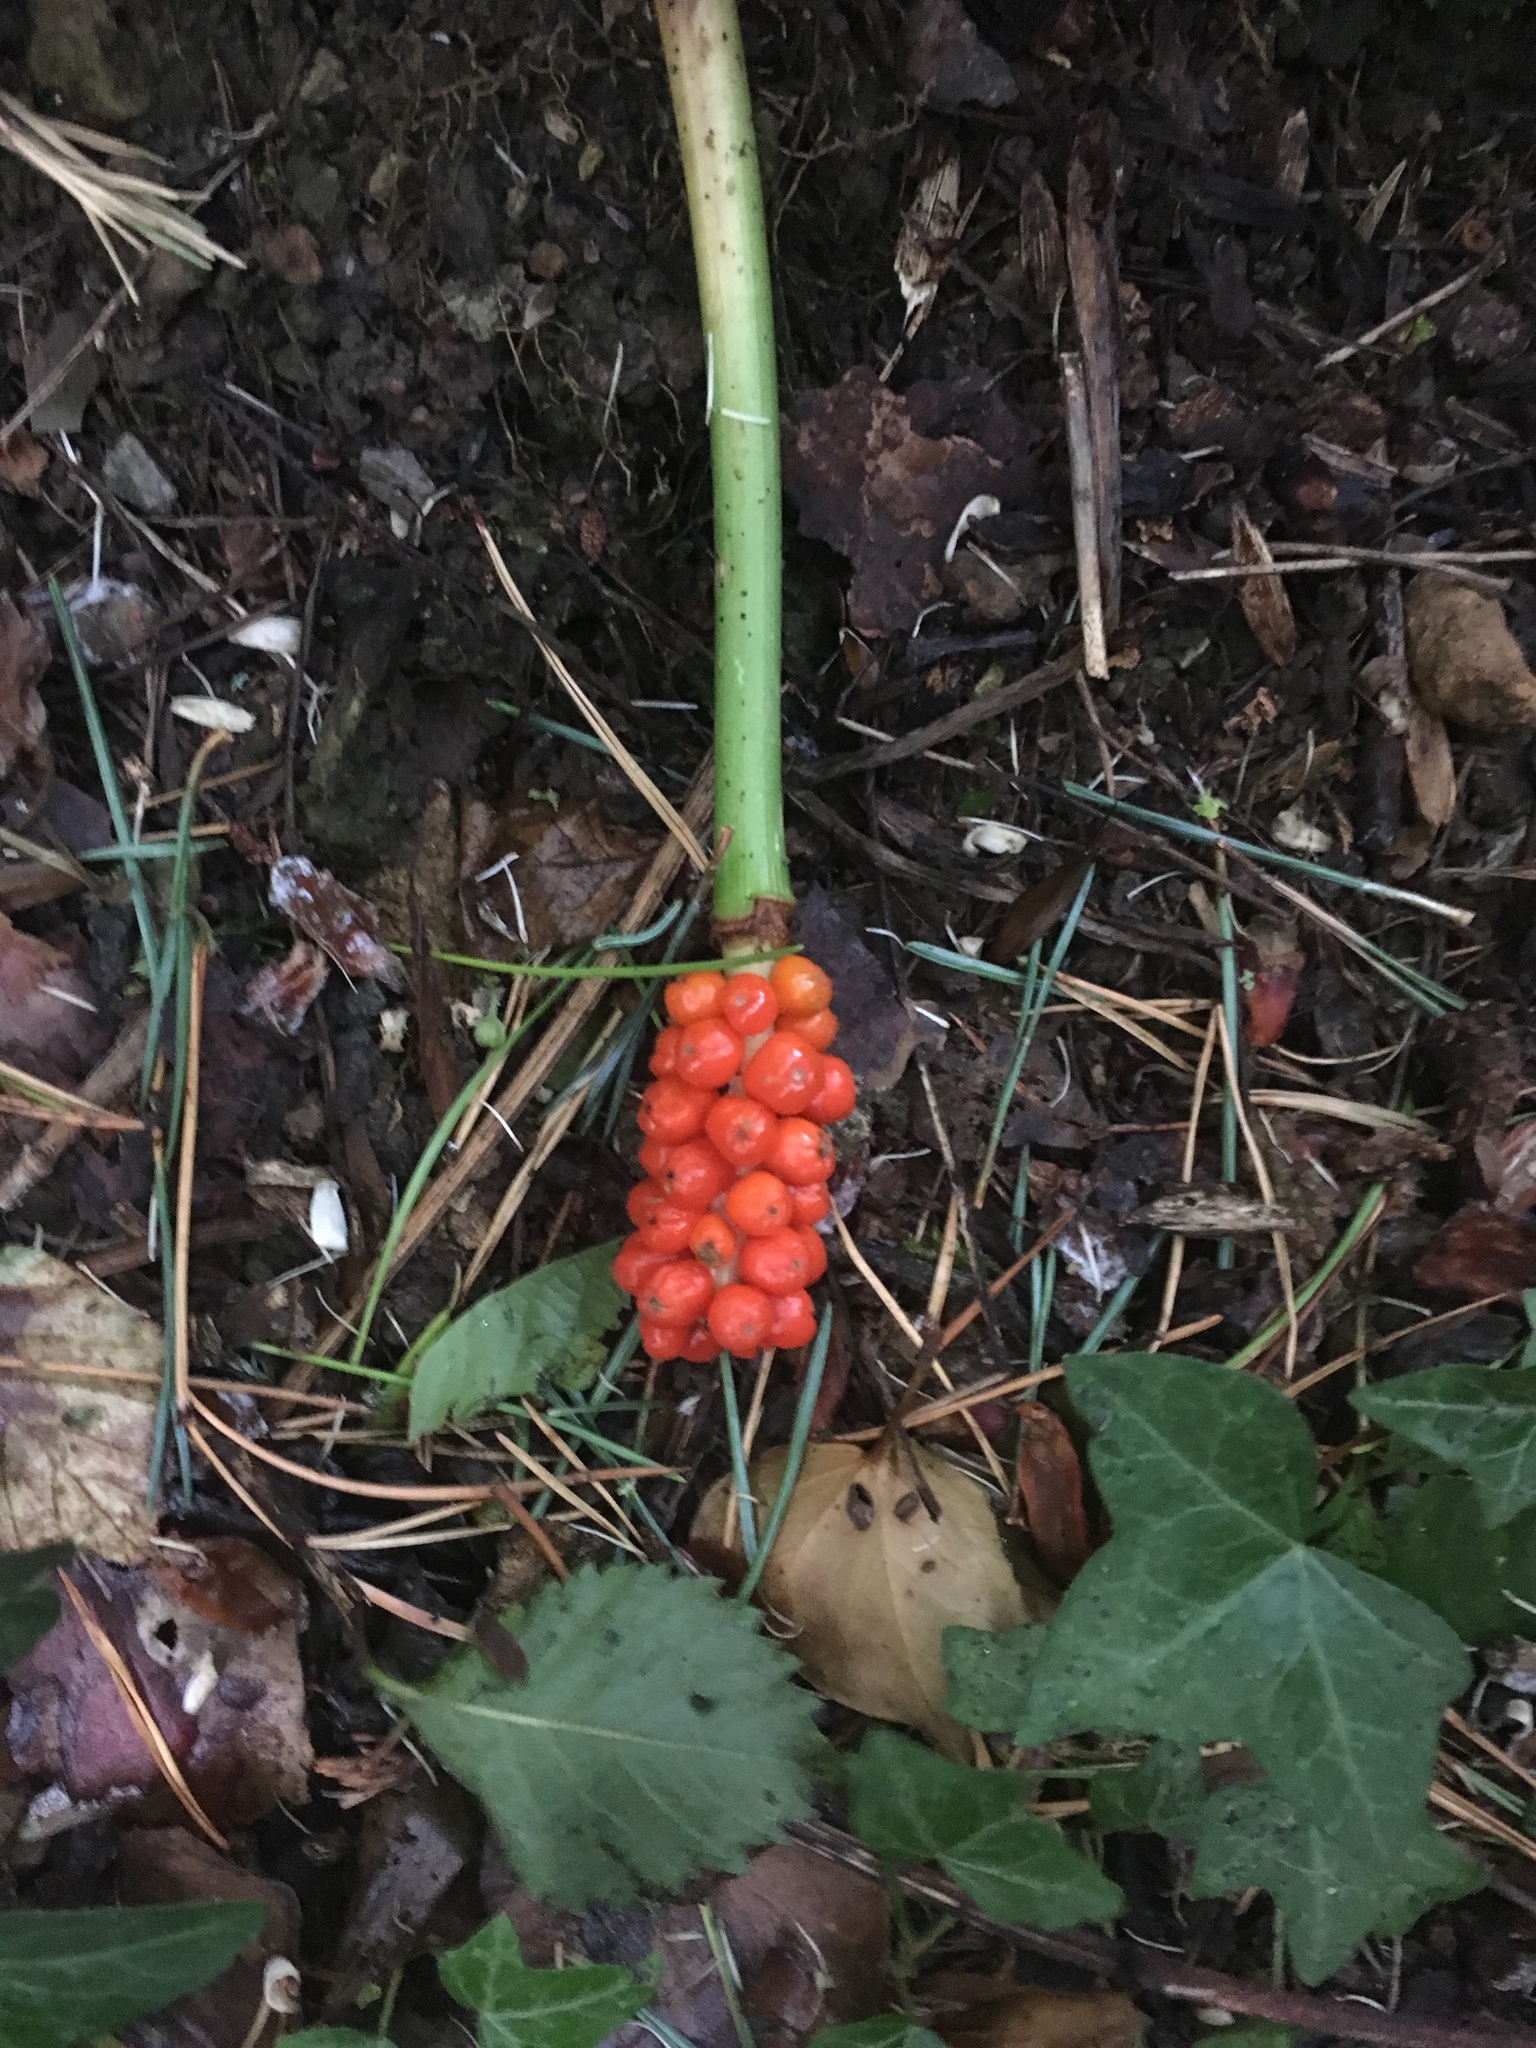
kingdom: Plantae
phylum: Tracheophyta
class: Liliopsida
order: Alismatales
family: Araceae
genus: Arum
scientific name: Arum maculatum
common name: Lords-and-ladies
